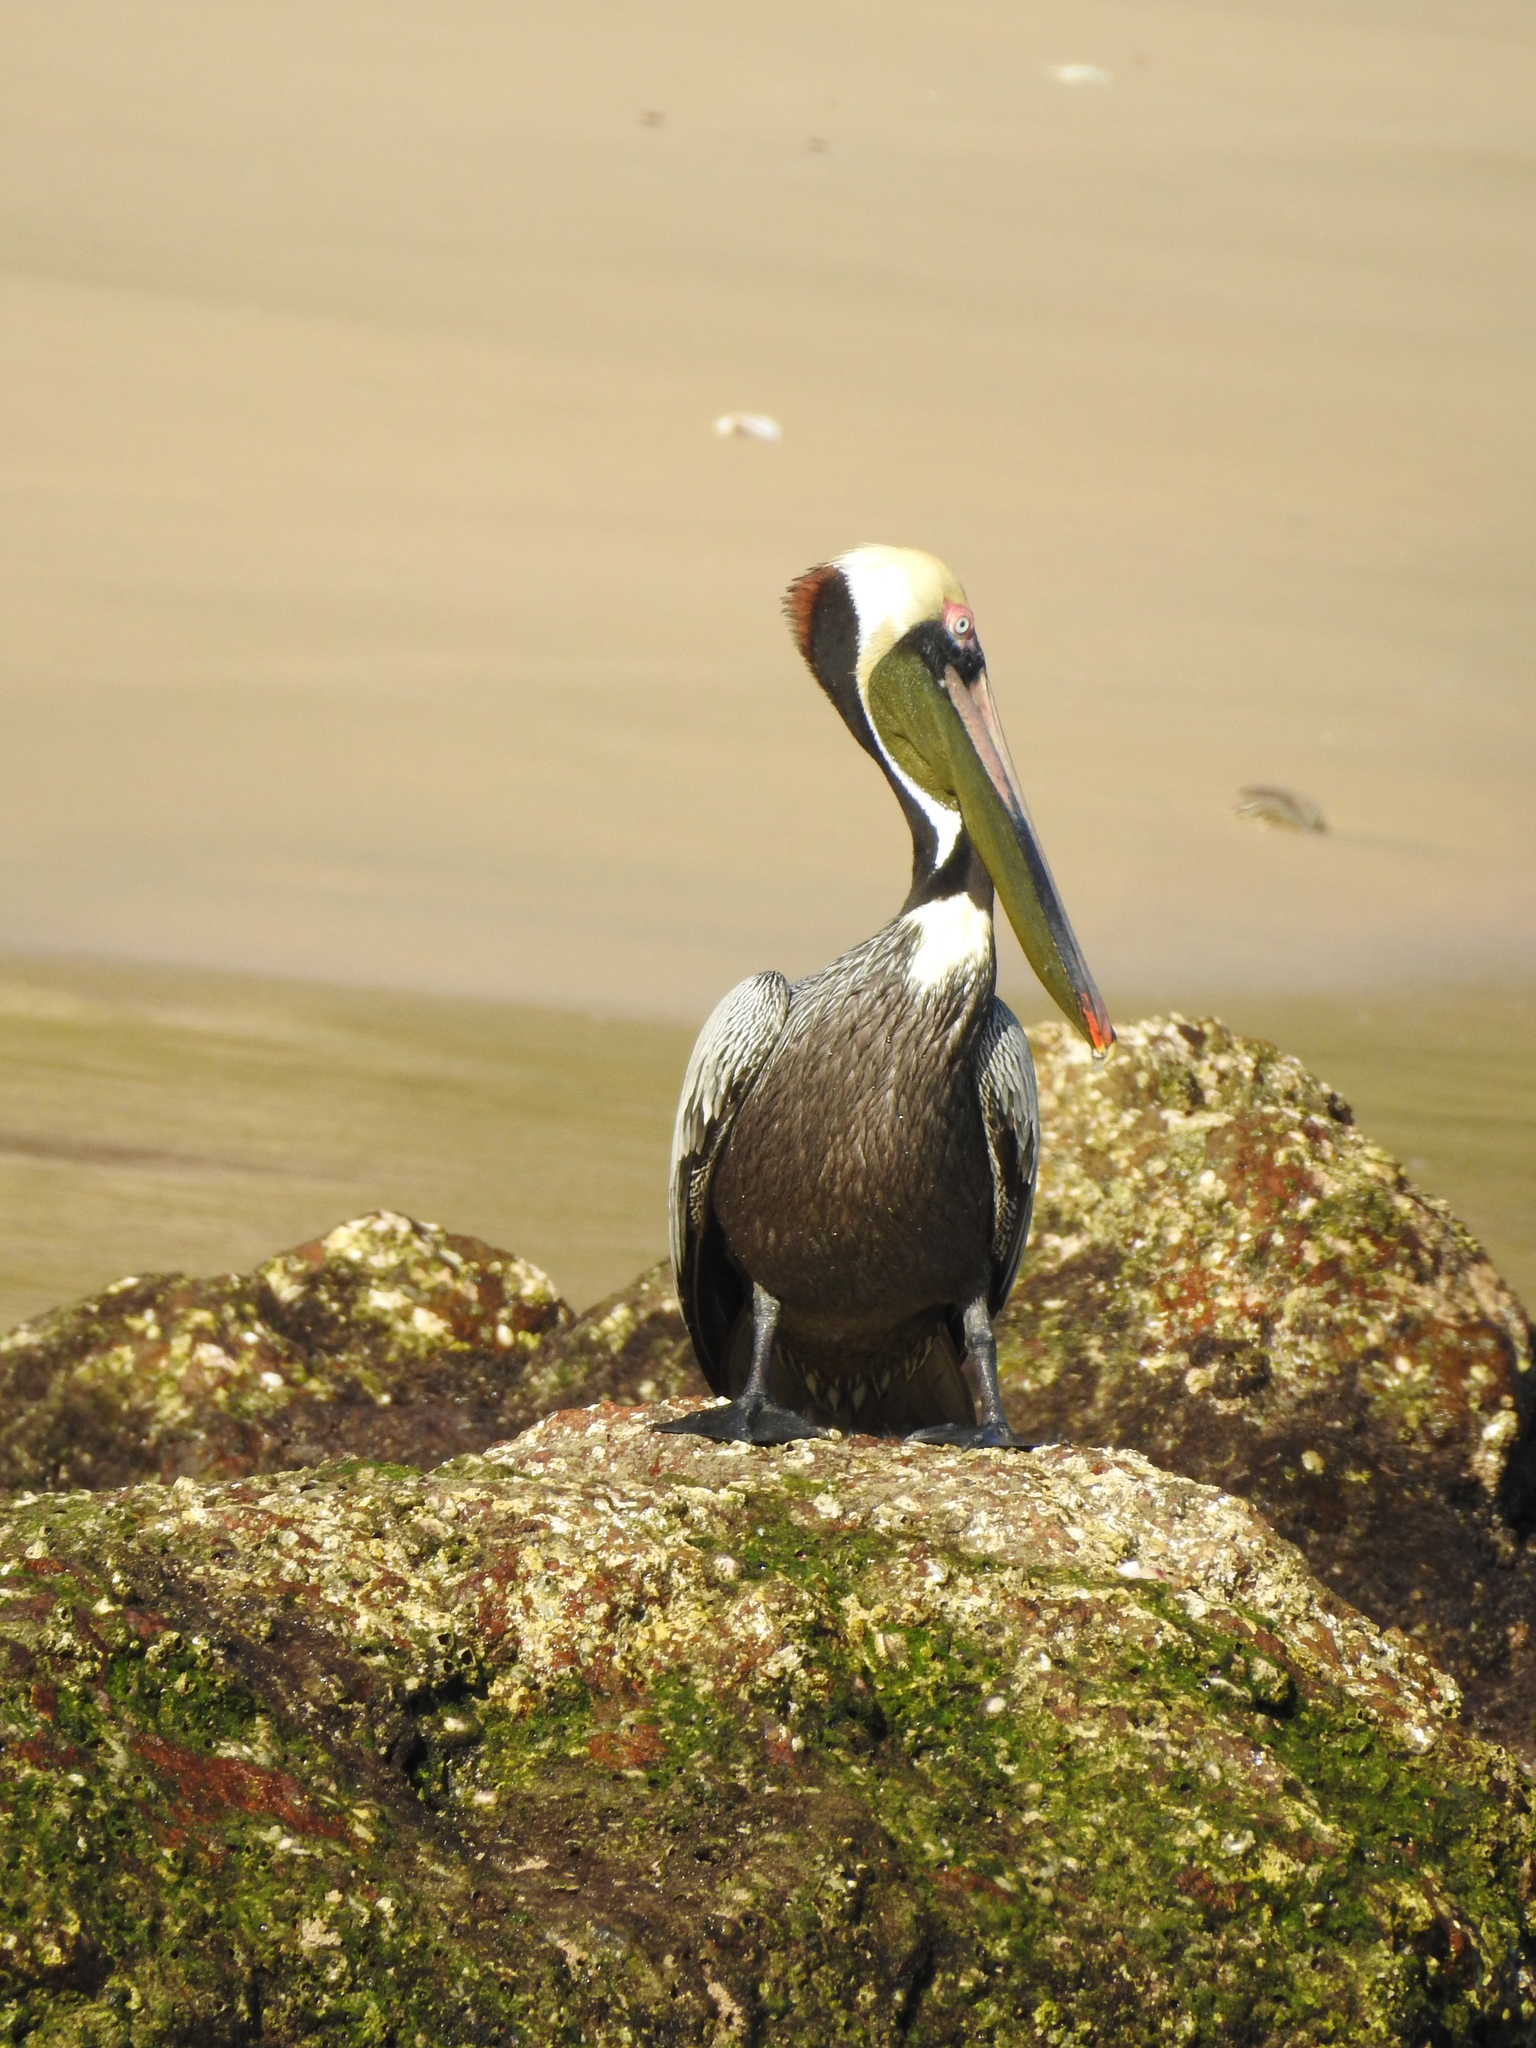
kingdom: Animalia
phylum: Chordata
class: Aves
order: Pelecaniformes
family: Pelecanidae
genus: Pelecanus
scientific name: Pelecanus occidentalis
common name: Brown pelican
